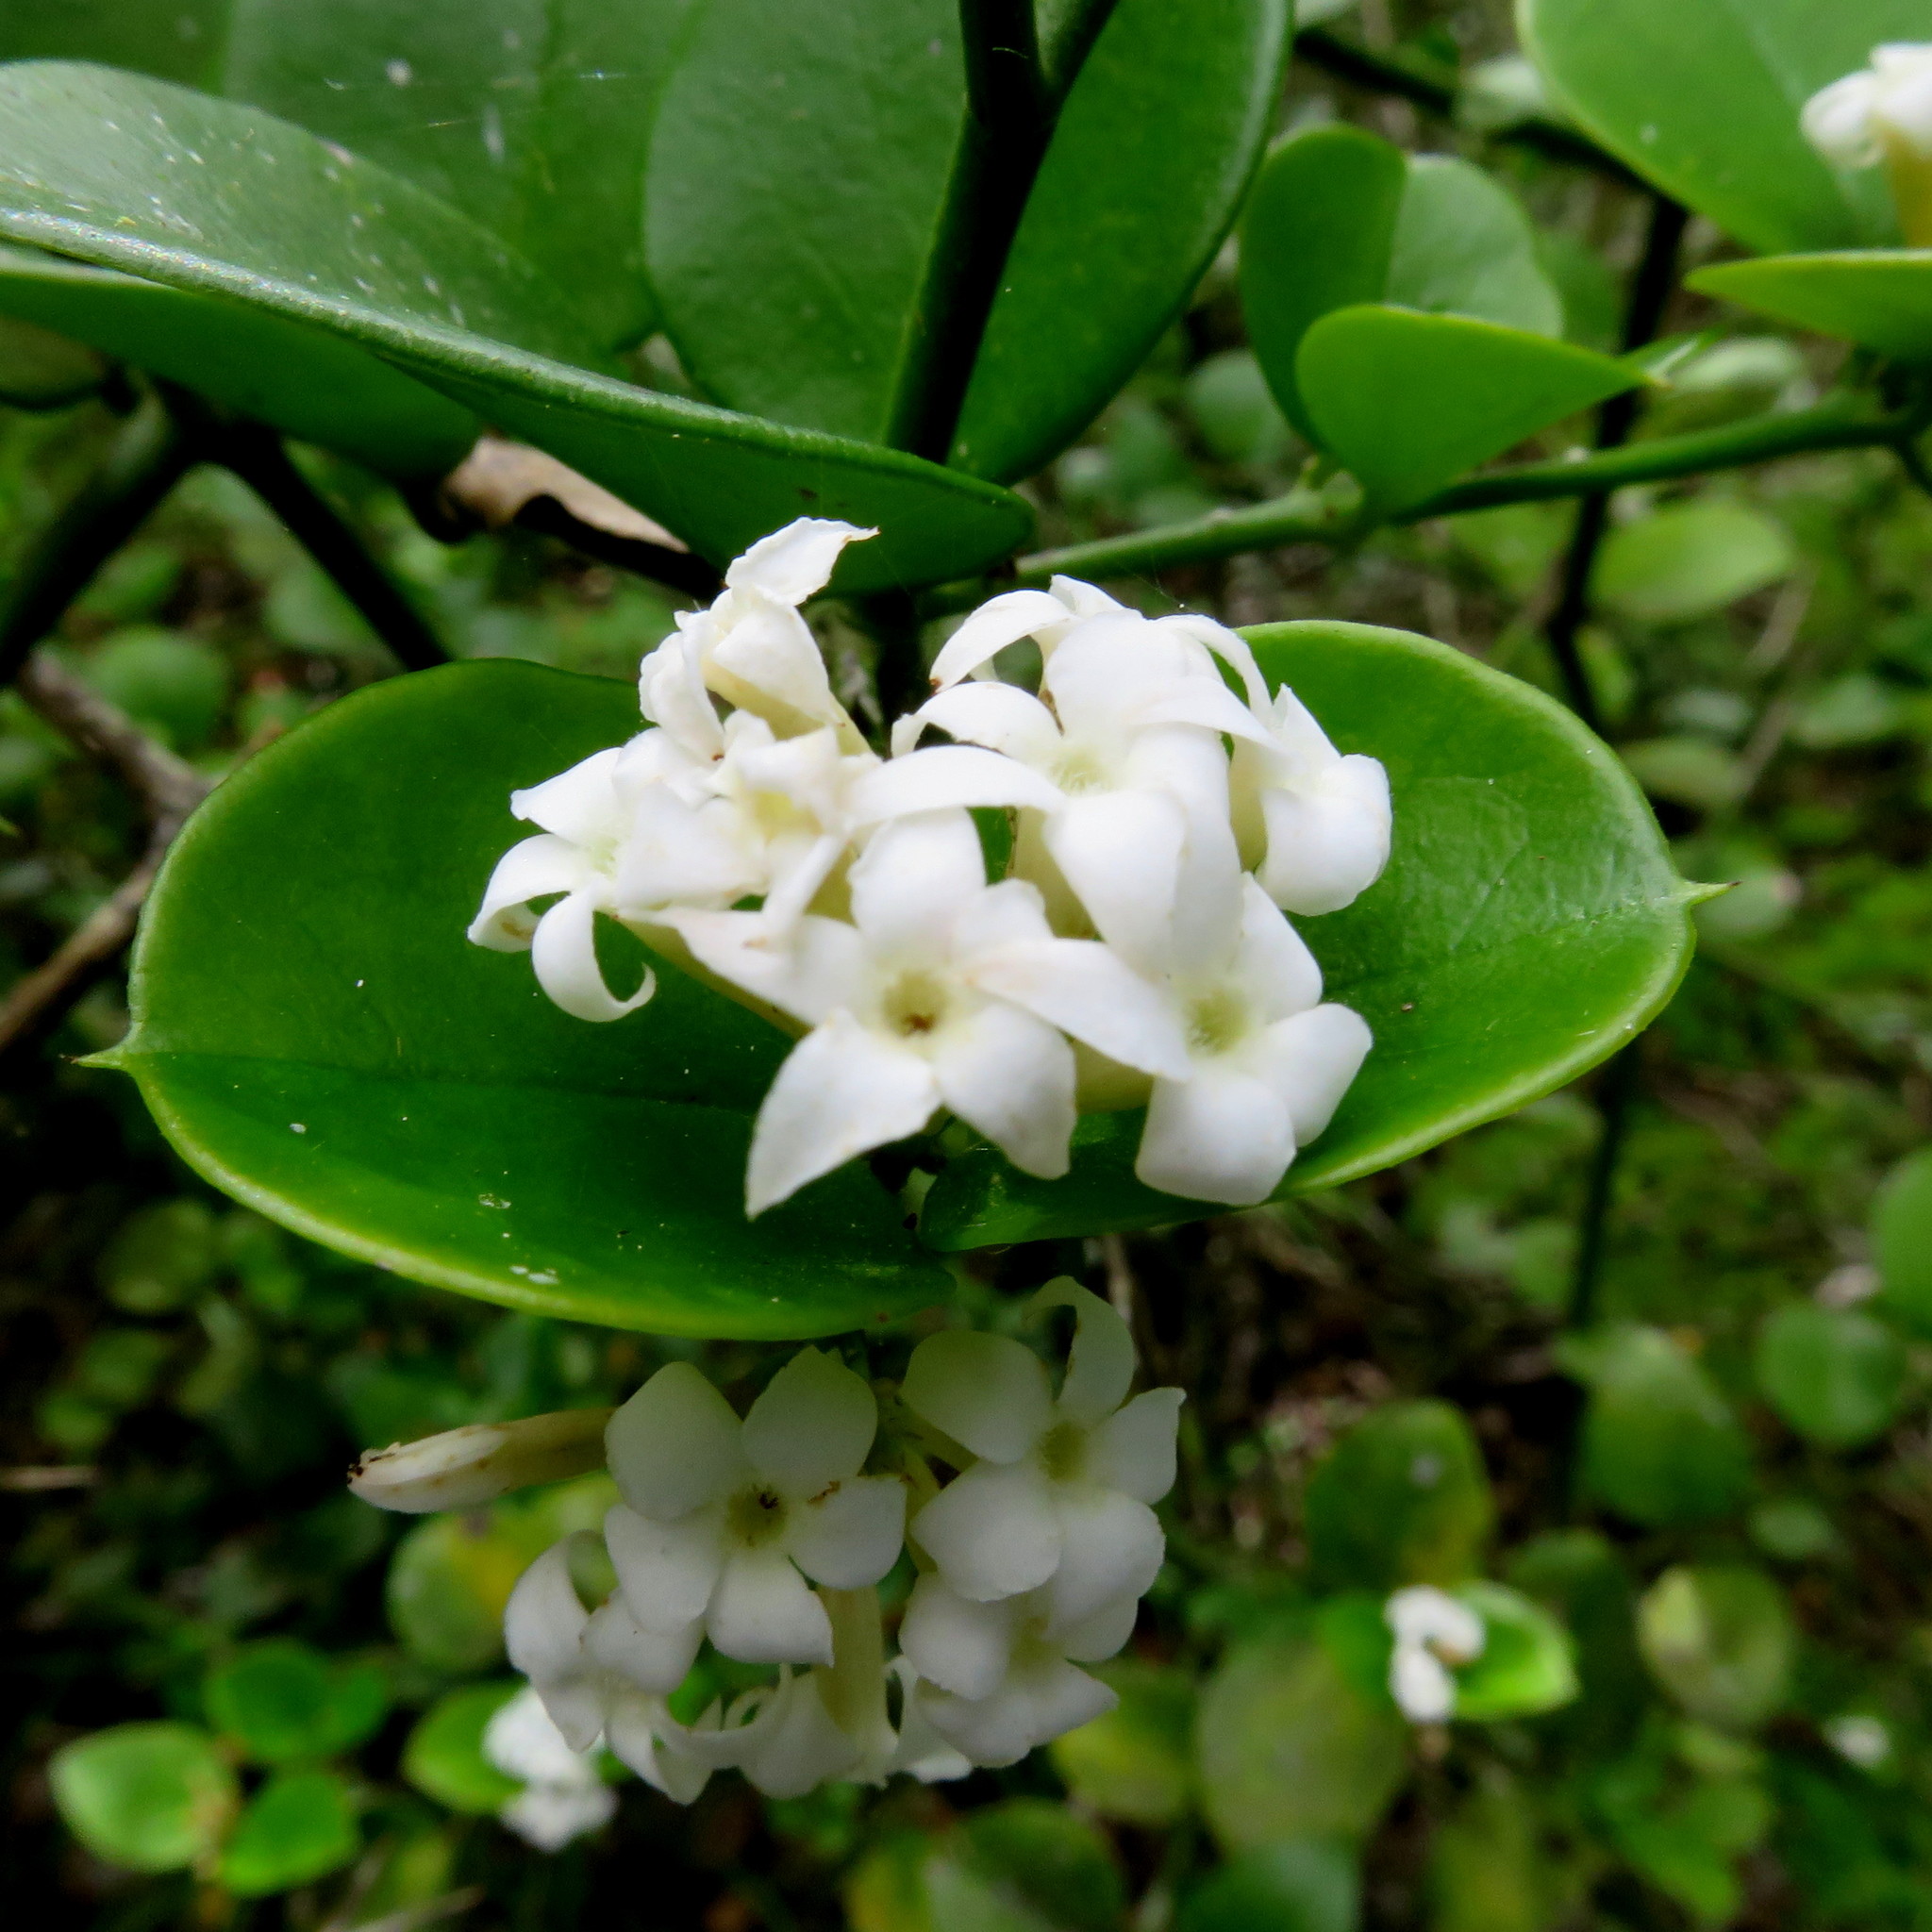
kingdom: Plantae
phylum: Tracheophyta
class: Magnoliopsida
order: Gentianales
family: Apocynaceae
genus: Carissa
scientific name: Carissa bispinosa
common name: Forest num-num
